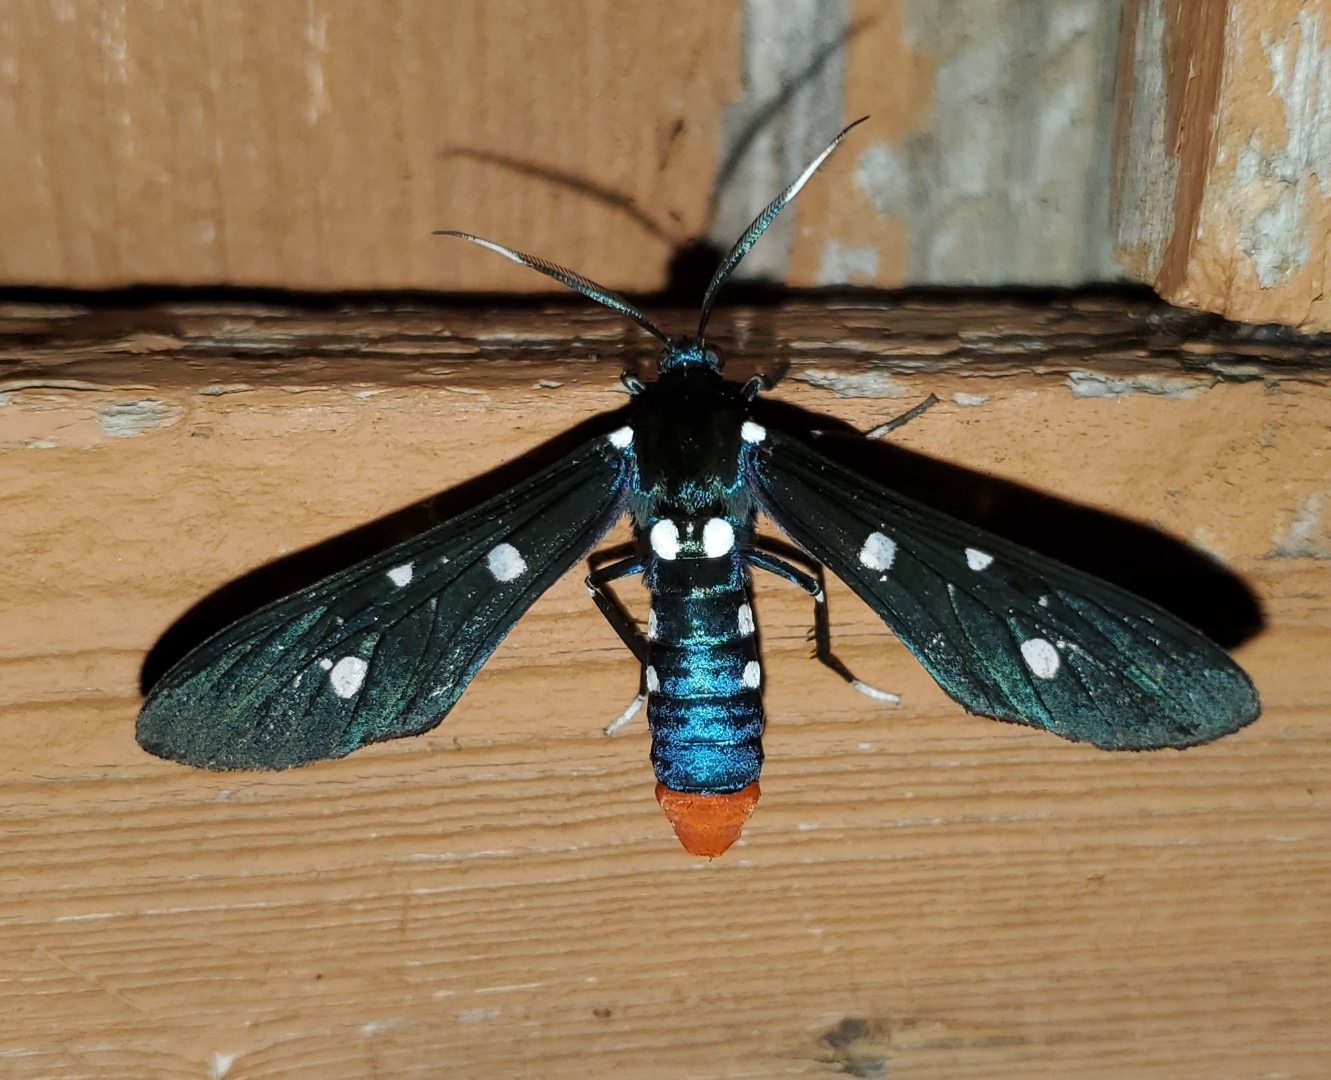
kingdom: Animalia
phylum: Arthropoda
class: Insecta
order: Lepidoptera
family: Erebidae
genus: Syntomeida
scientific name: Syntomeida epilais
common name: Polka-dot wasp moth
